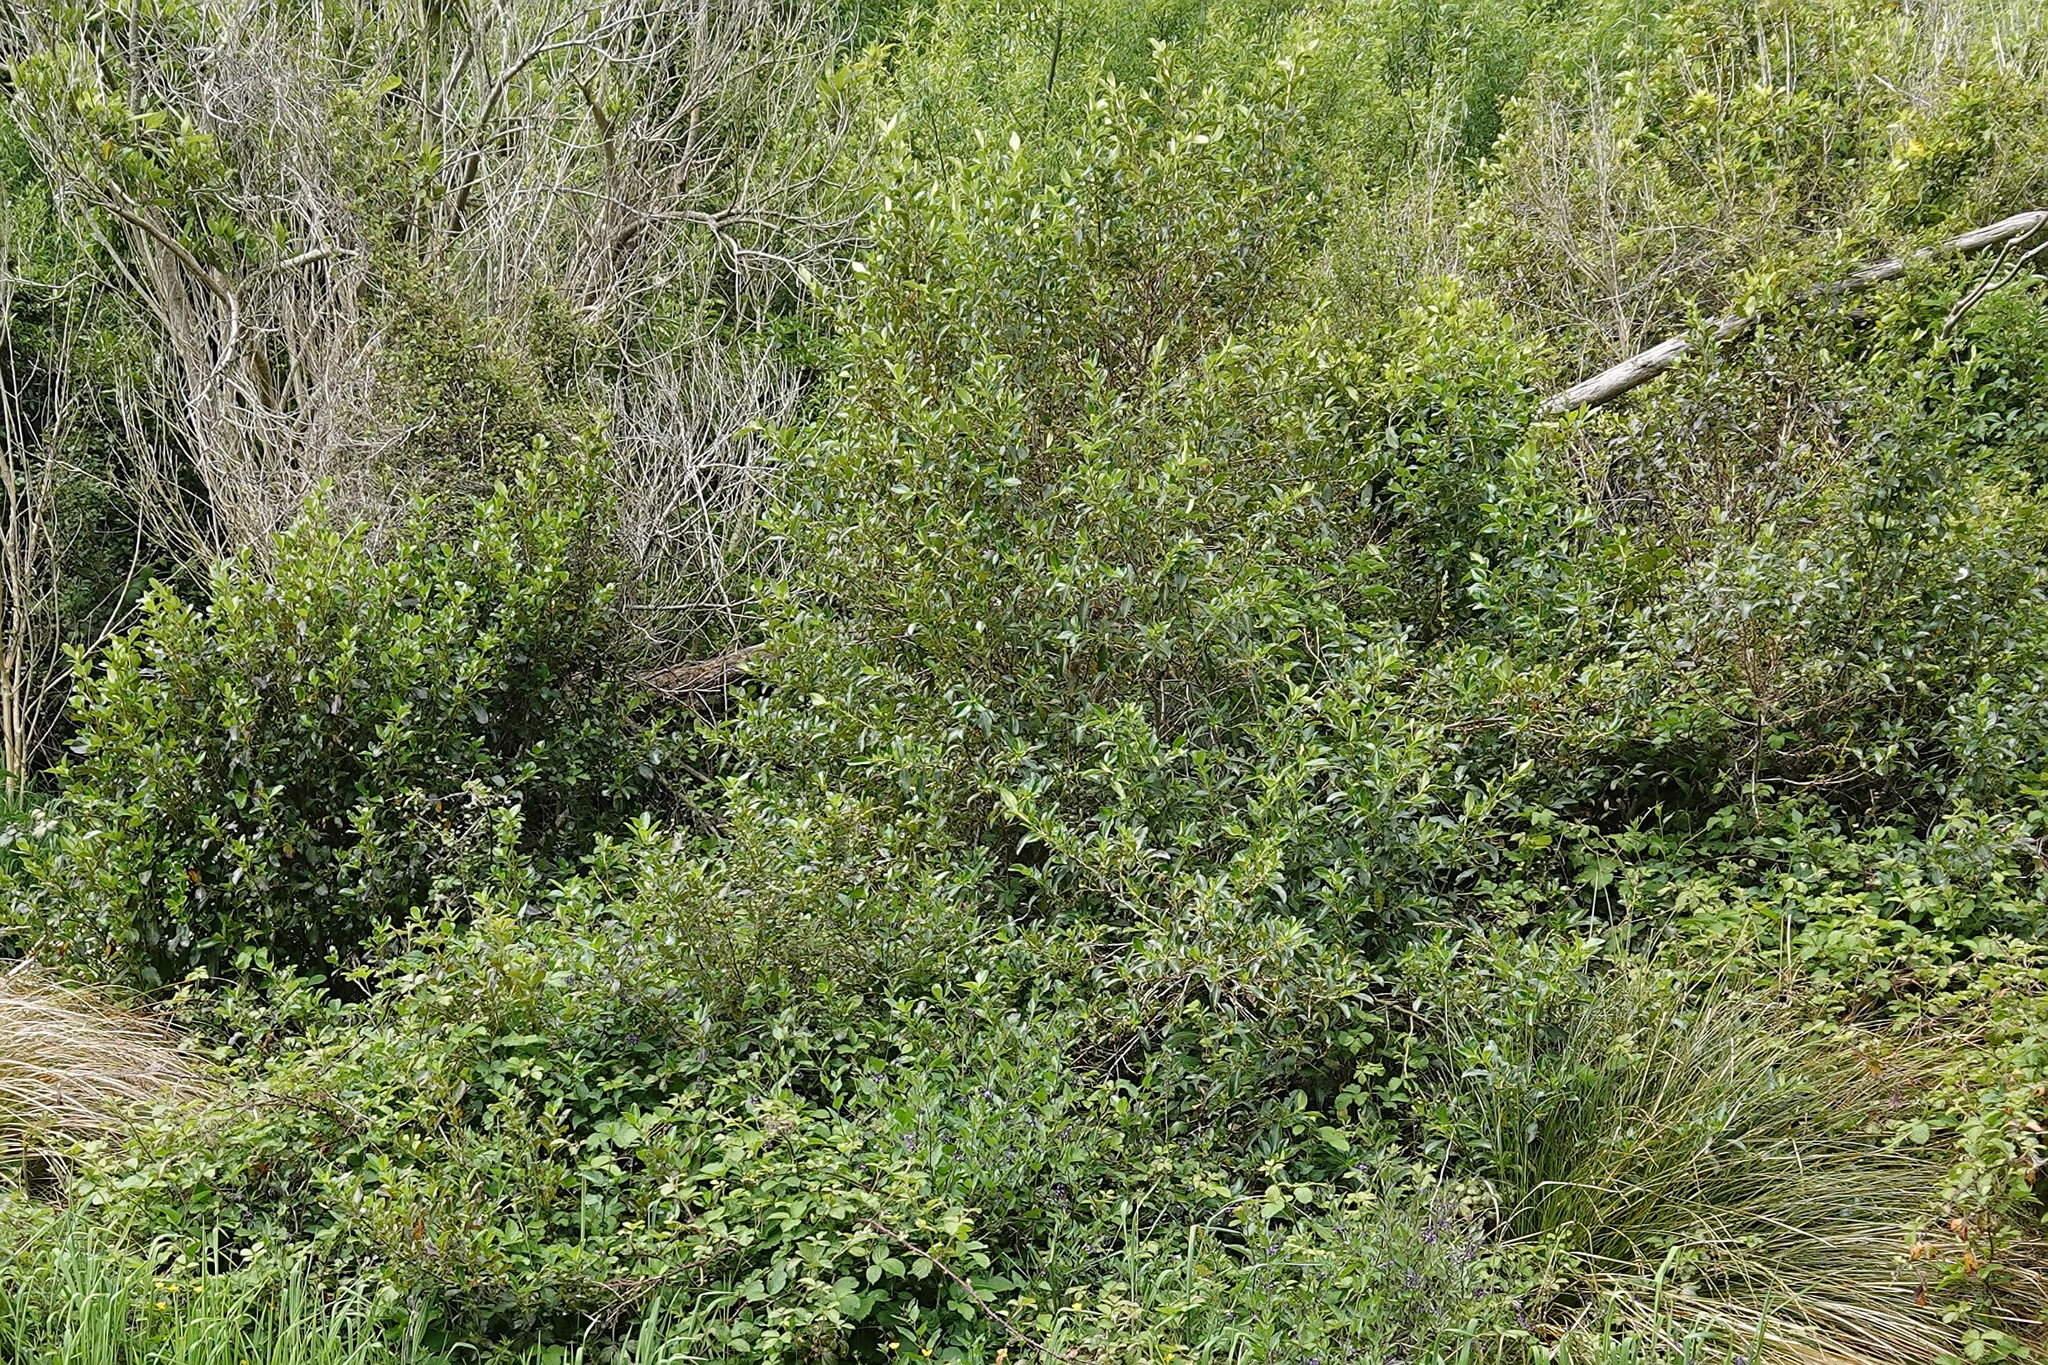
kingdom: Plantae
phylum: Tracheophyta
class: Magnoliopsida
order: Gentianales
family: Rubiaceae
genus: Coprosma
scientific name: Coprosma robusta
